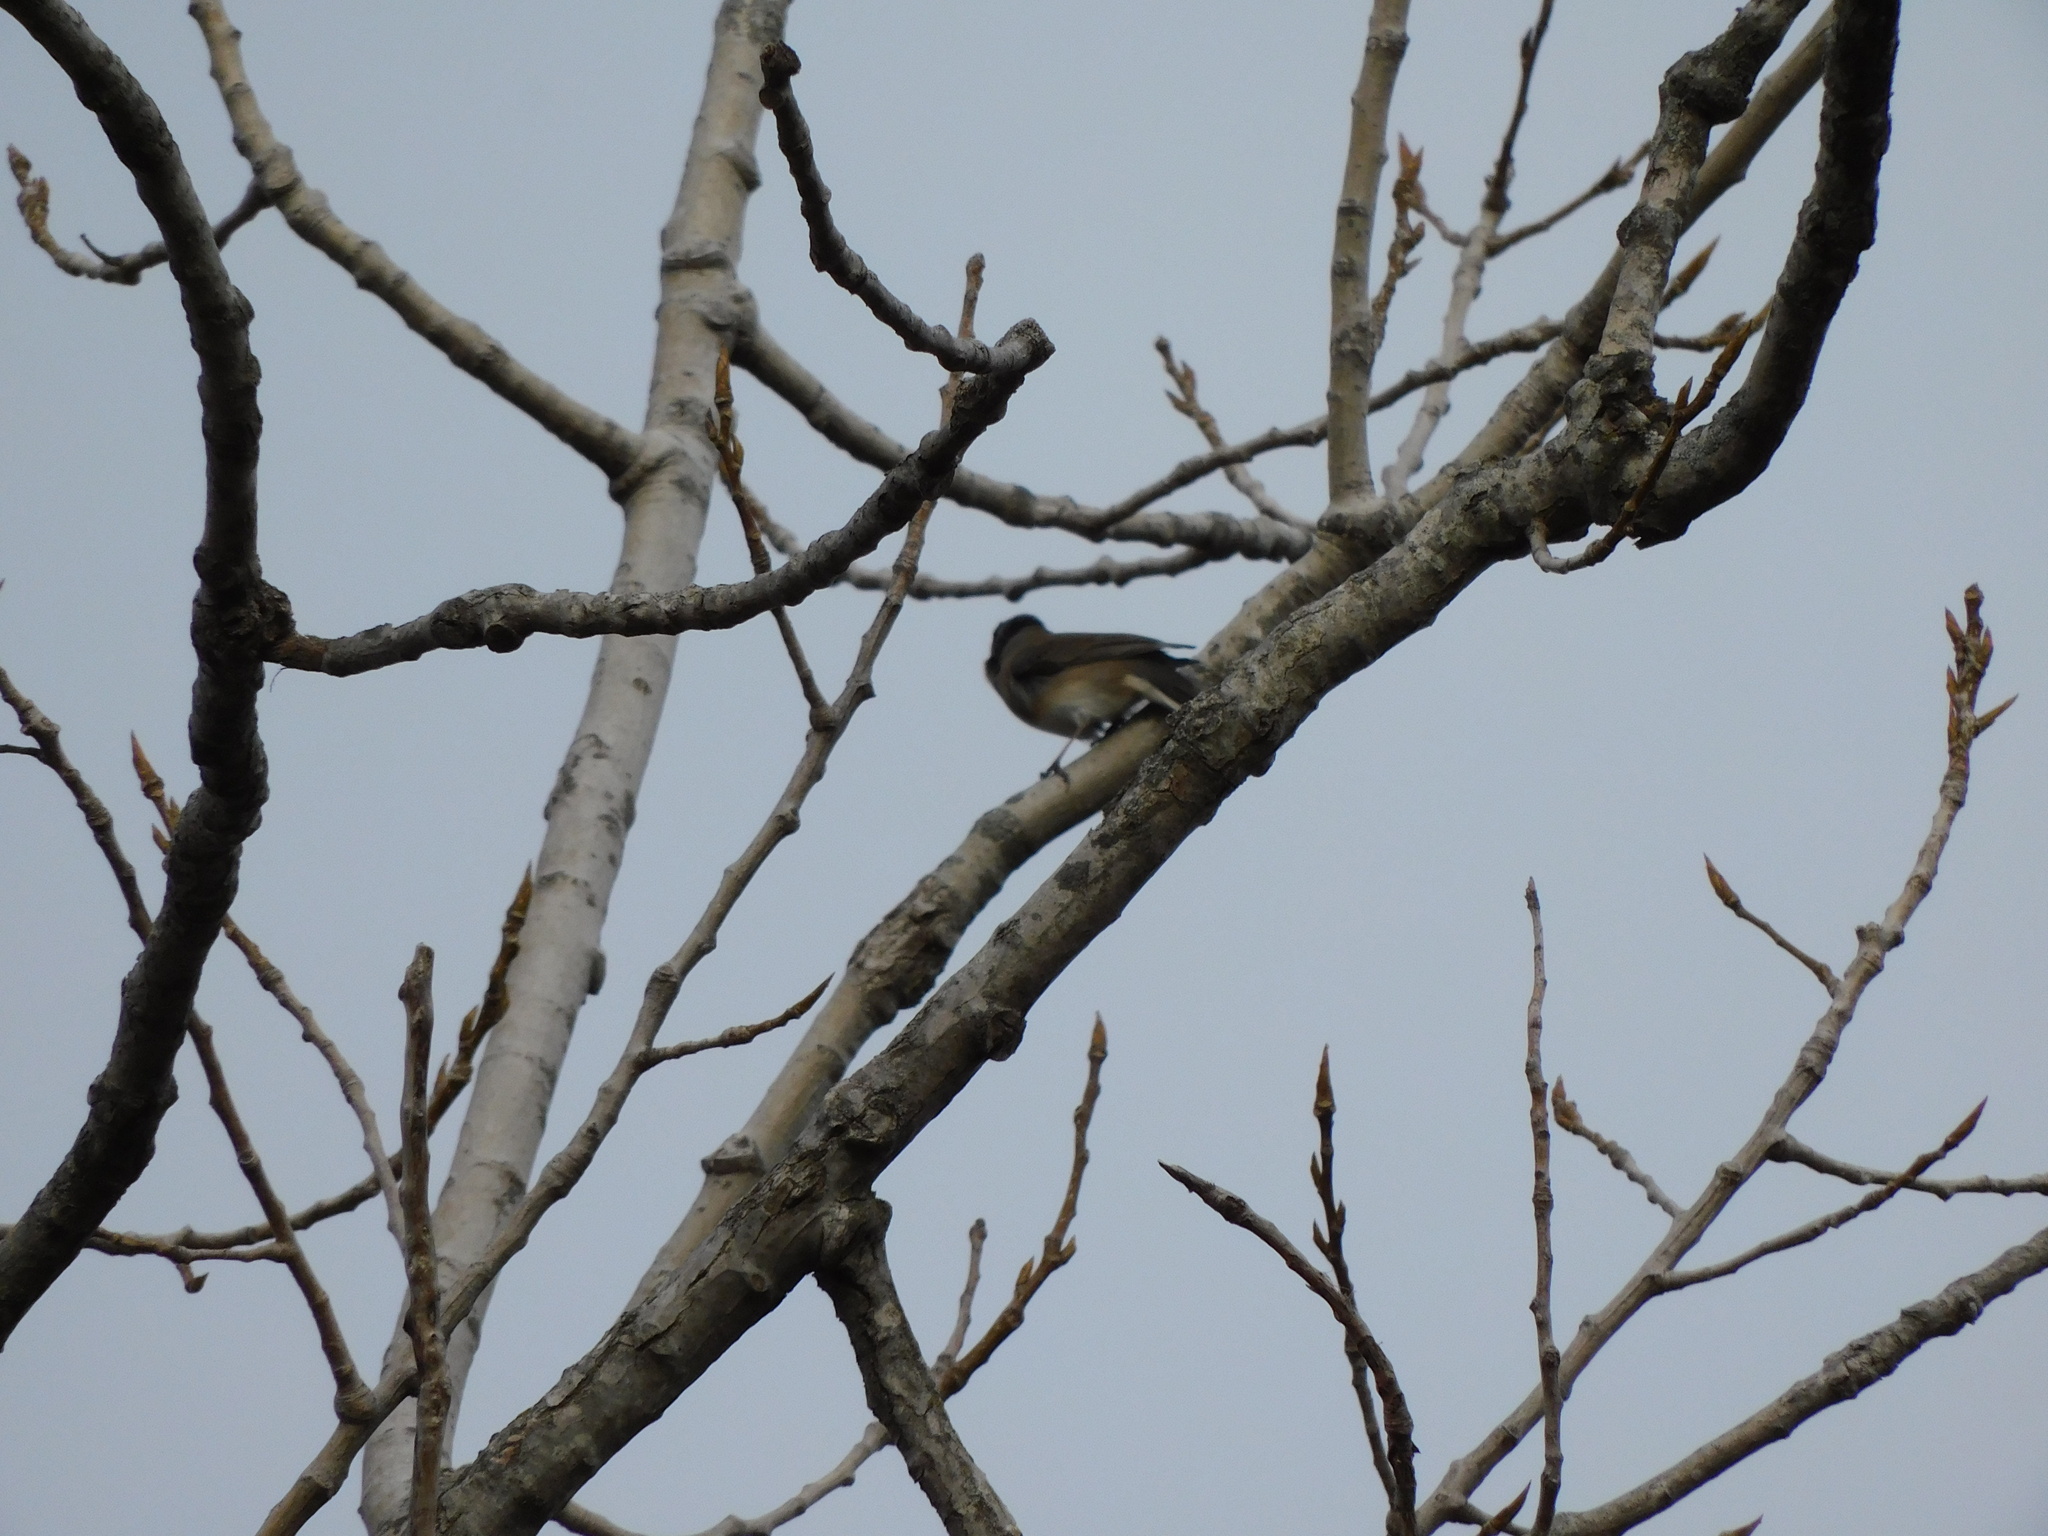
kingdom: Animalia
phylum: Chordata
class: Aves
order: Passeriformes
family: Passerellidae
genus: Junco
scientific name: Junco hyemalis
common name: Dark-eyed junco
